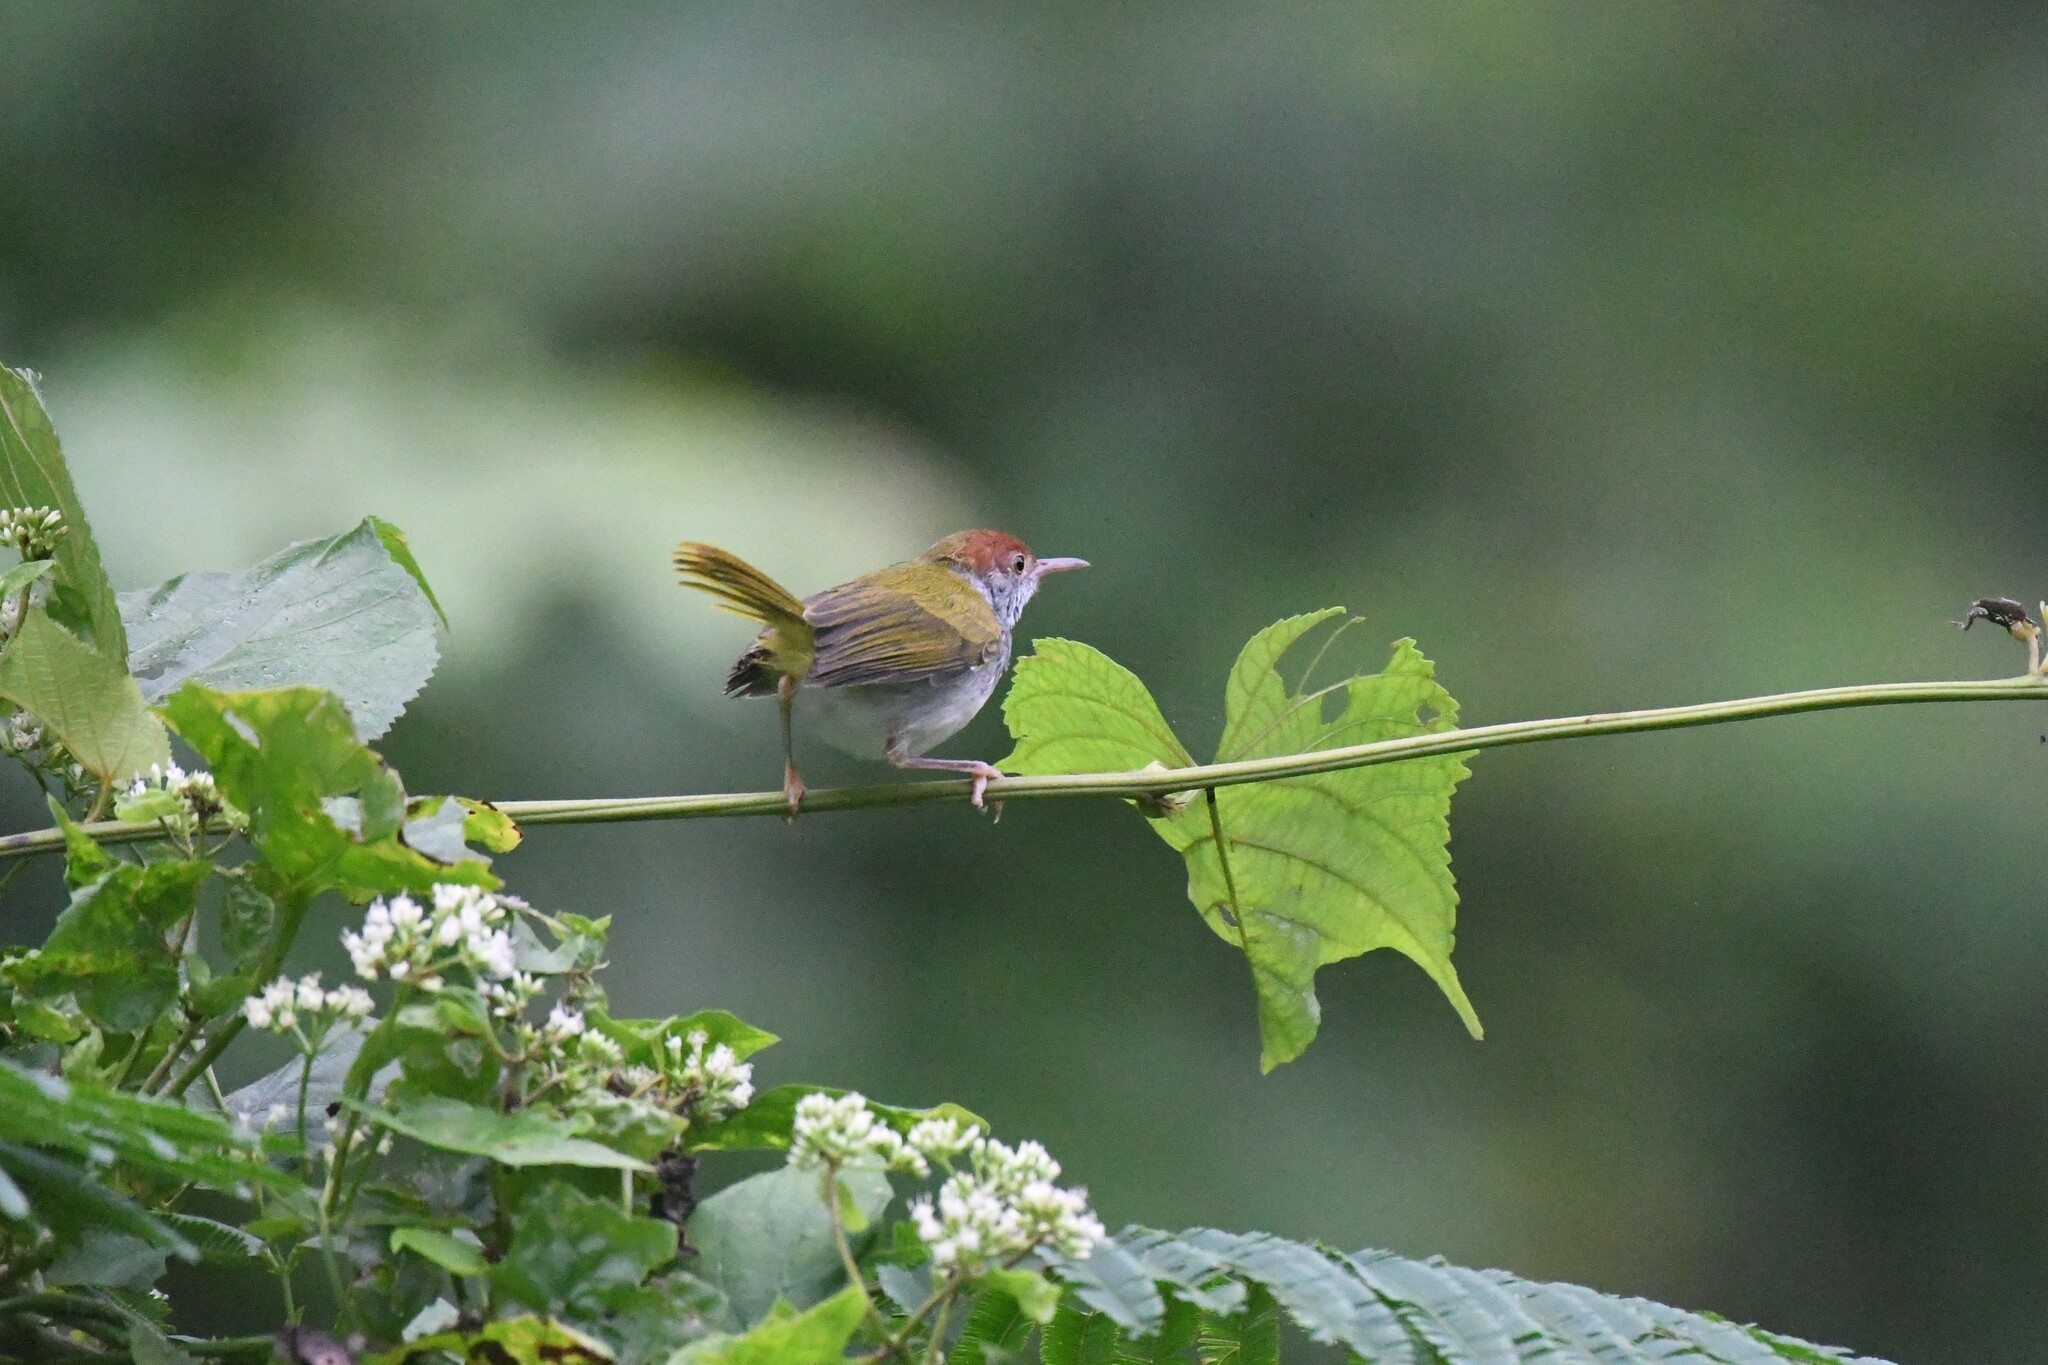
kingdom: Animalia
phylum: Chordata
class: Aves
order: Passeriformes
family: Cisticolidae
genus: Orthotomus
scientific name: Orthotomus atrogularis
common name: Dark-necked tailorbird
